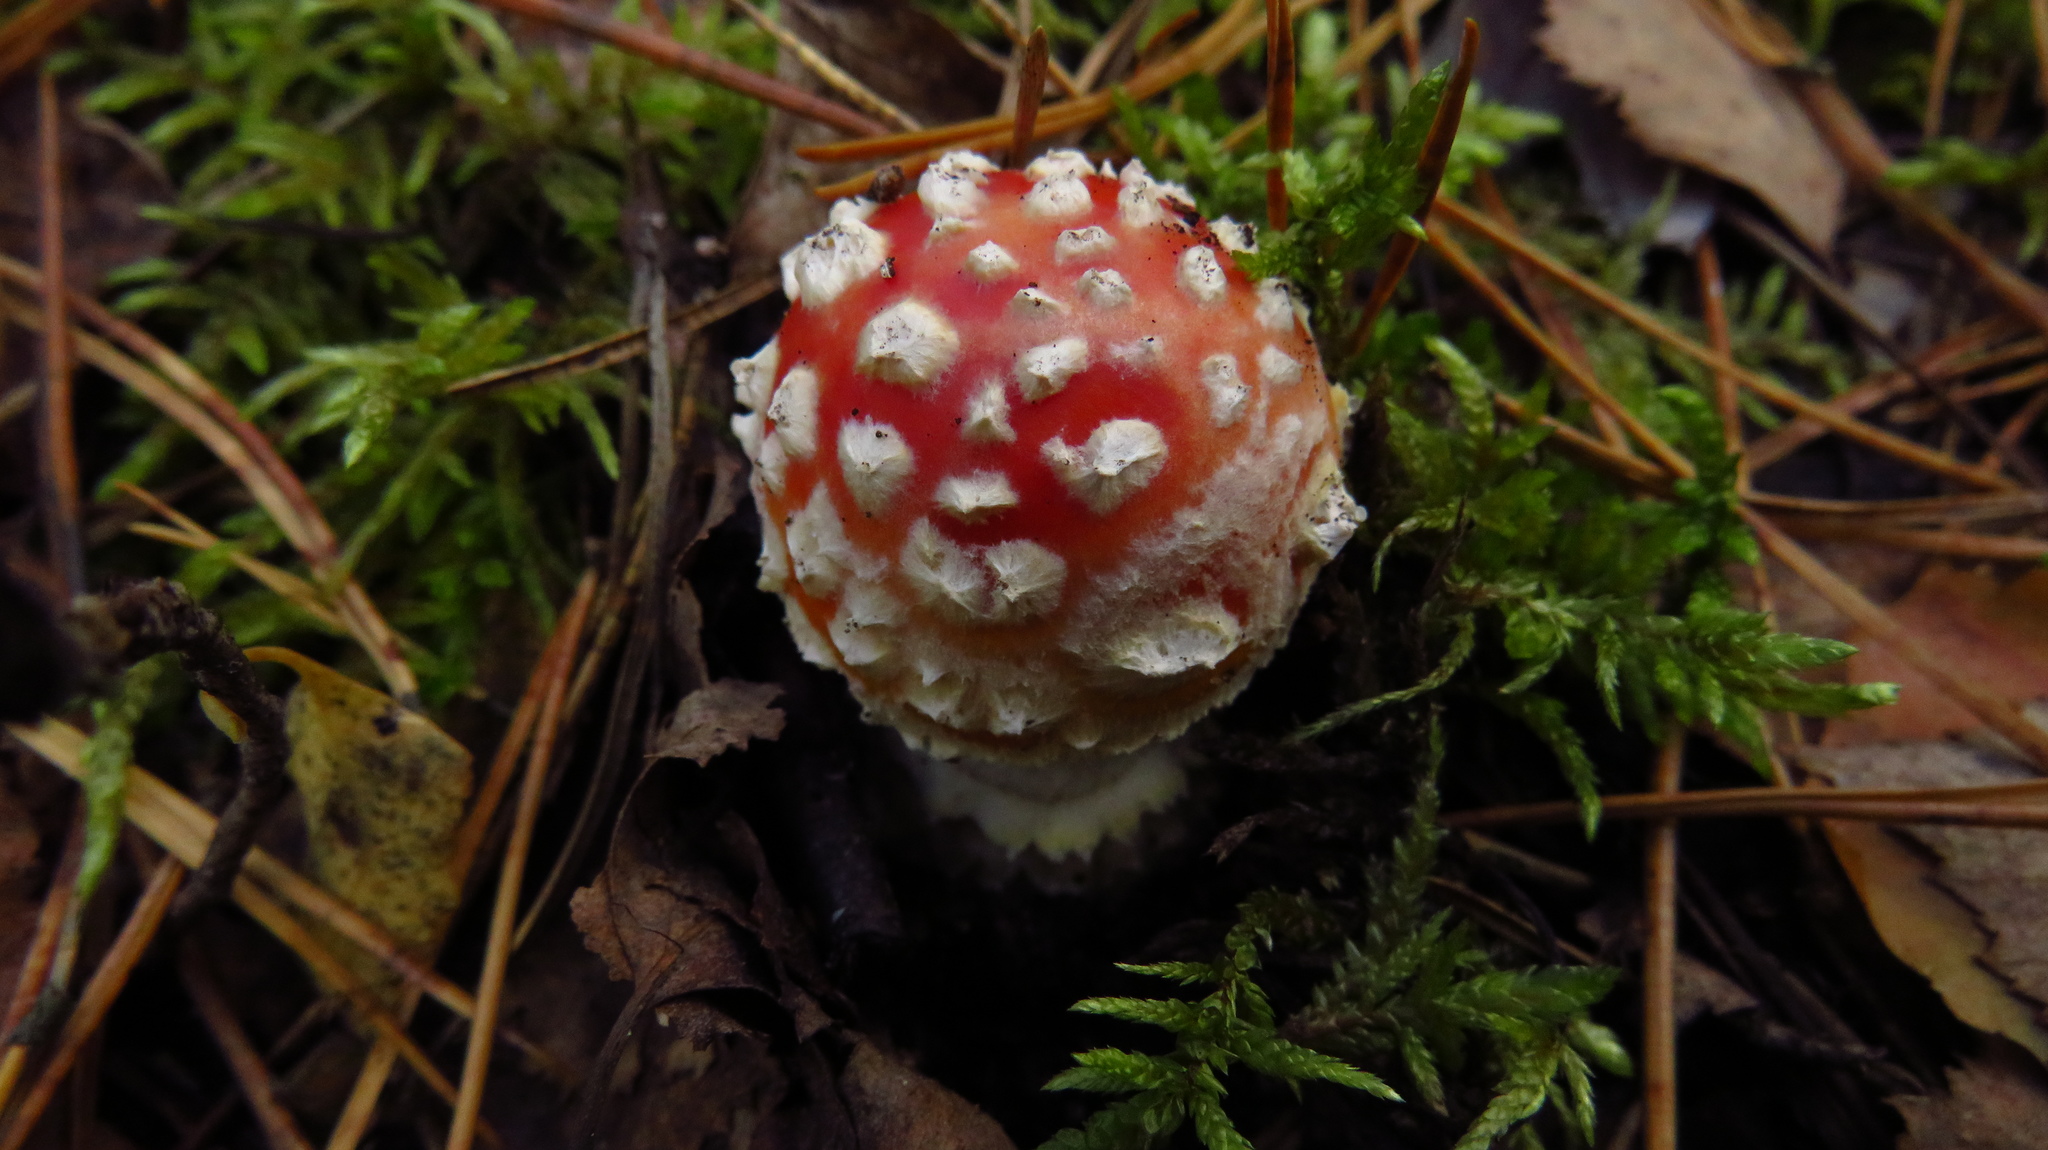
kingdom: Fungi
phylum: Basidiomycota
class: Agaricomycetes
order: Agaricales
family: Amanitaceae
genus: Amanita
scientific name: Amanita muscaria
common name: Fly agaric
